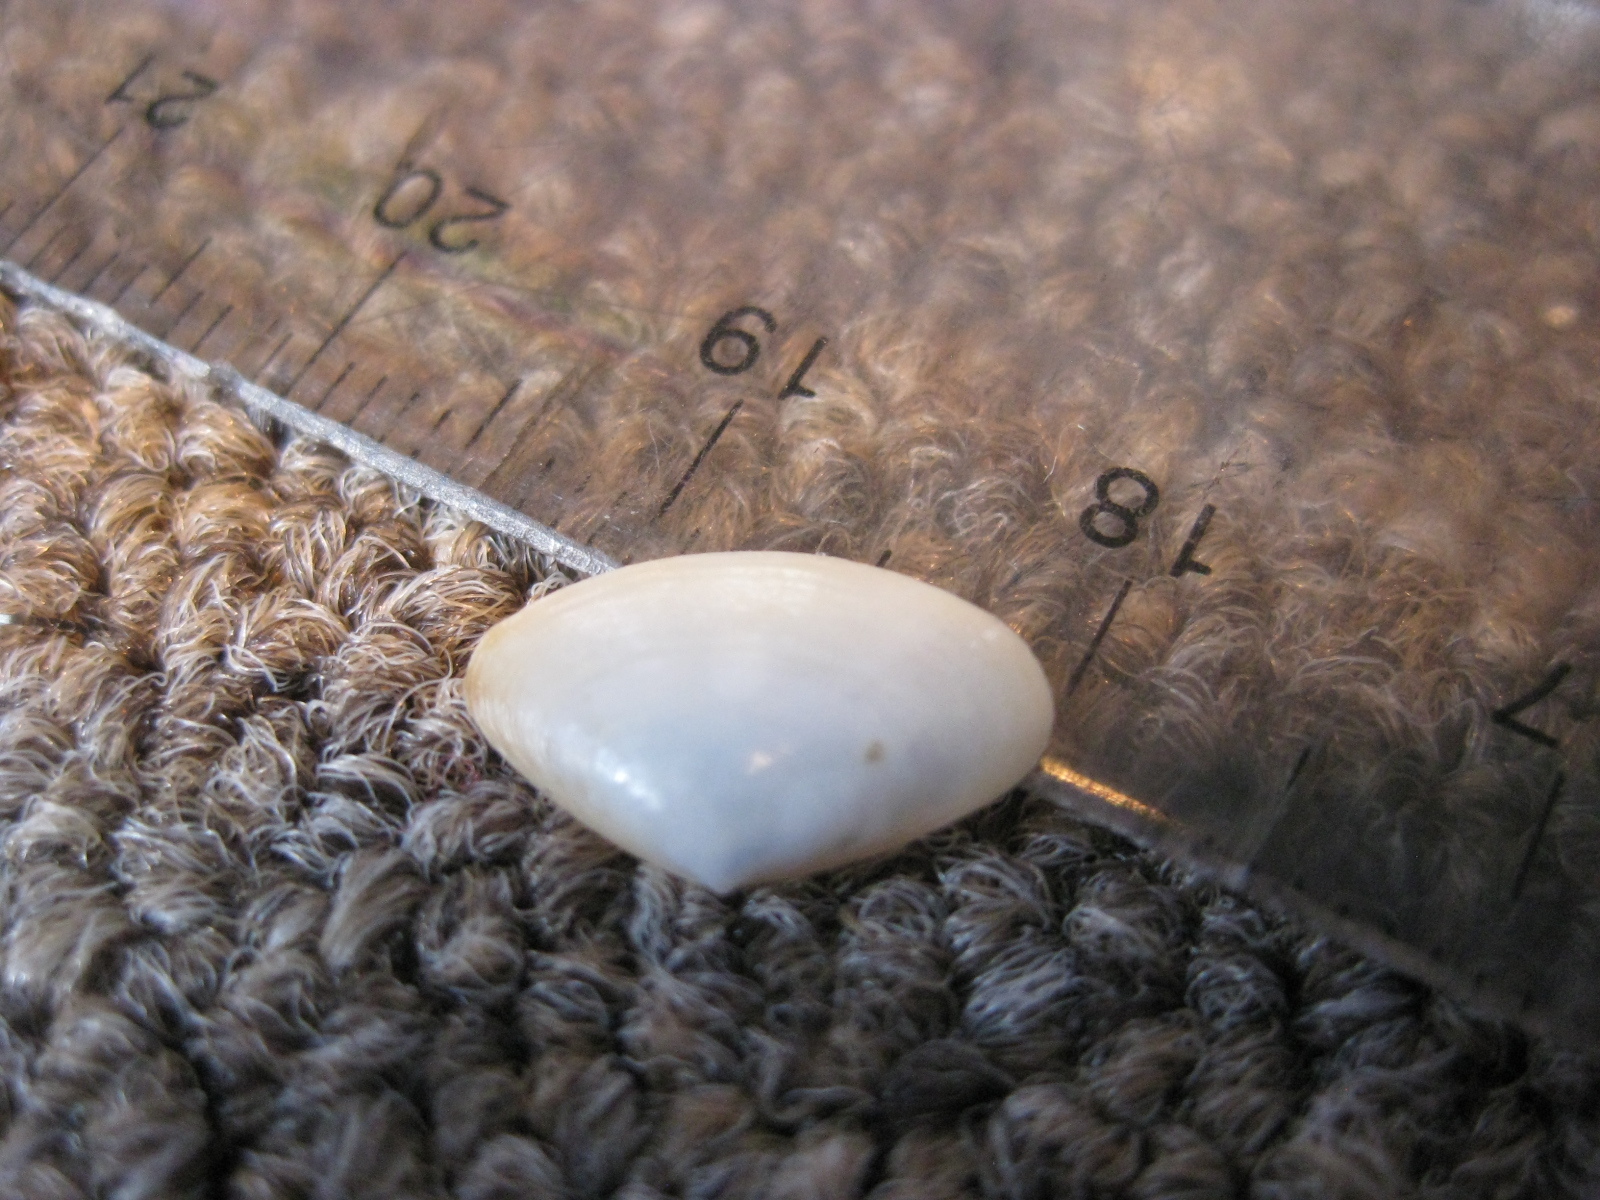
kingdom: Animalia
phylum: Mollusca
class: Bivalvia
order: Venerida
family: Mactridae
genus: Scalpomactra
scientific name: Scalpomactra scalpellum
